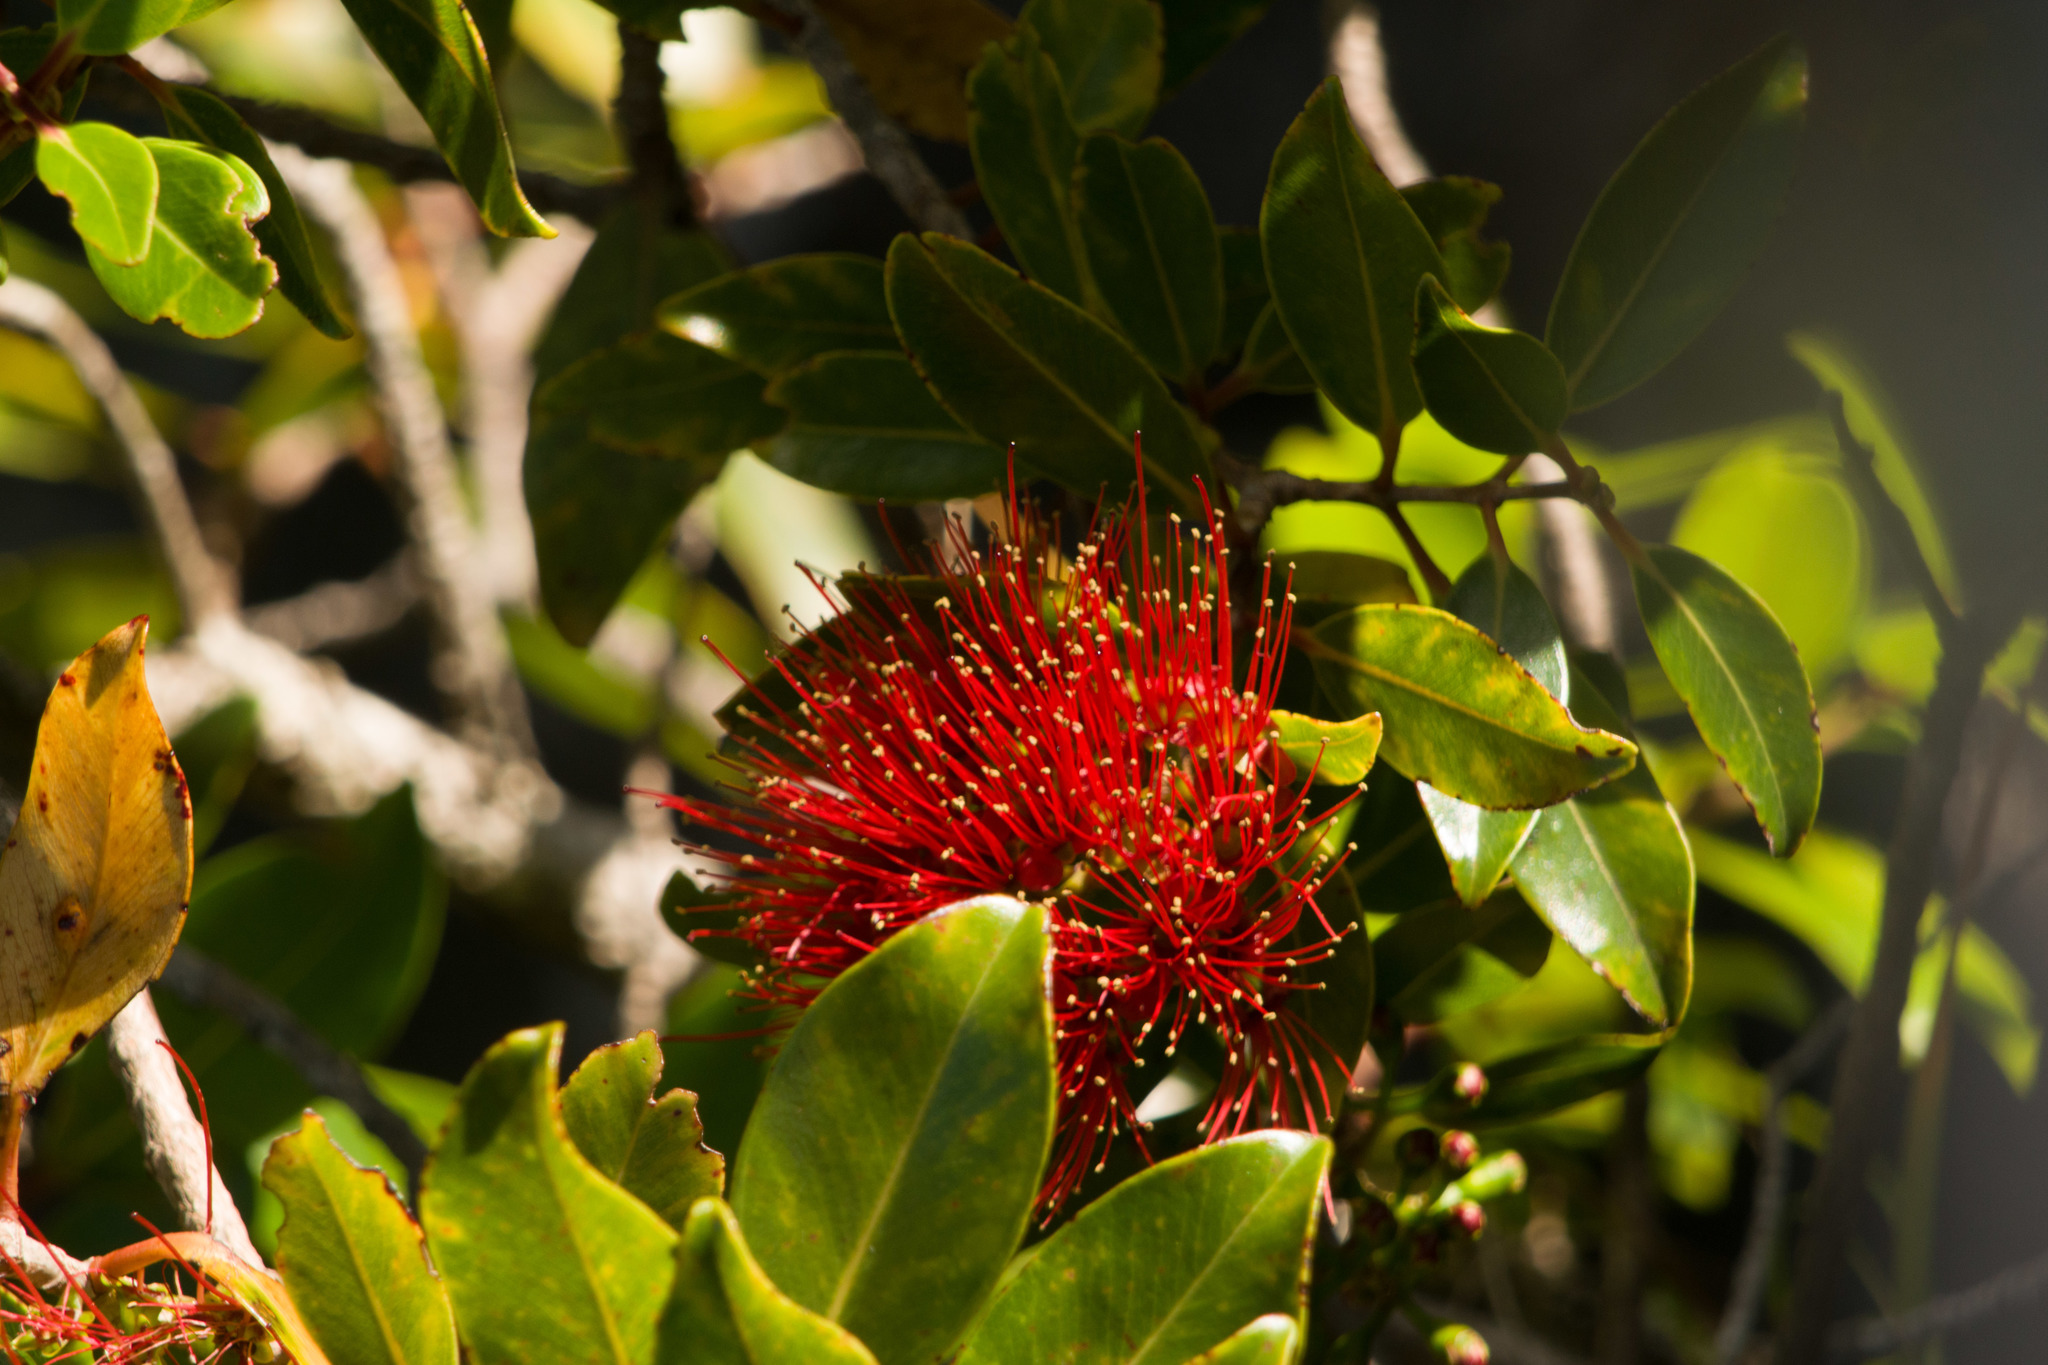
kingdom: Plantae
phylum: Tracheophyta
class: Magnoliopsida
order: Myrtales
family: Myrtaceae
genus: Metrosideros
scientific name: Metrosideros polymorpha
